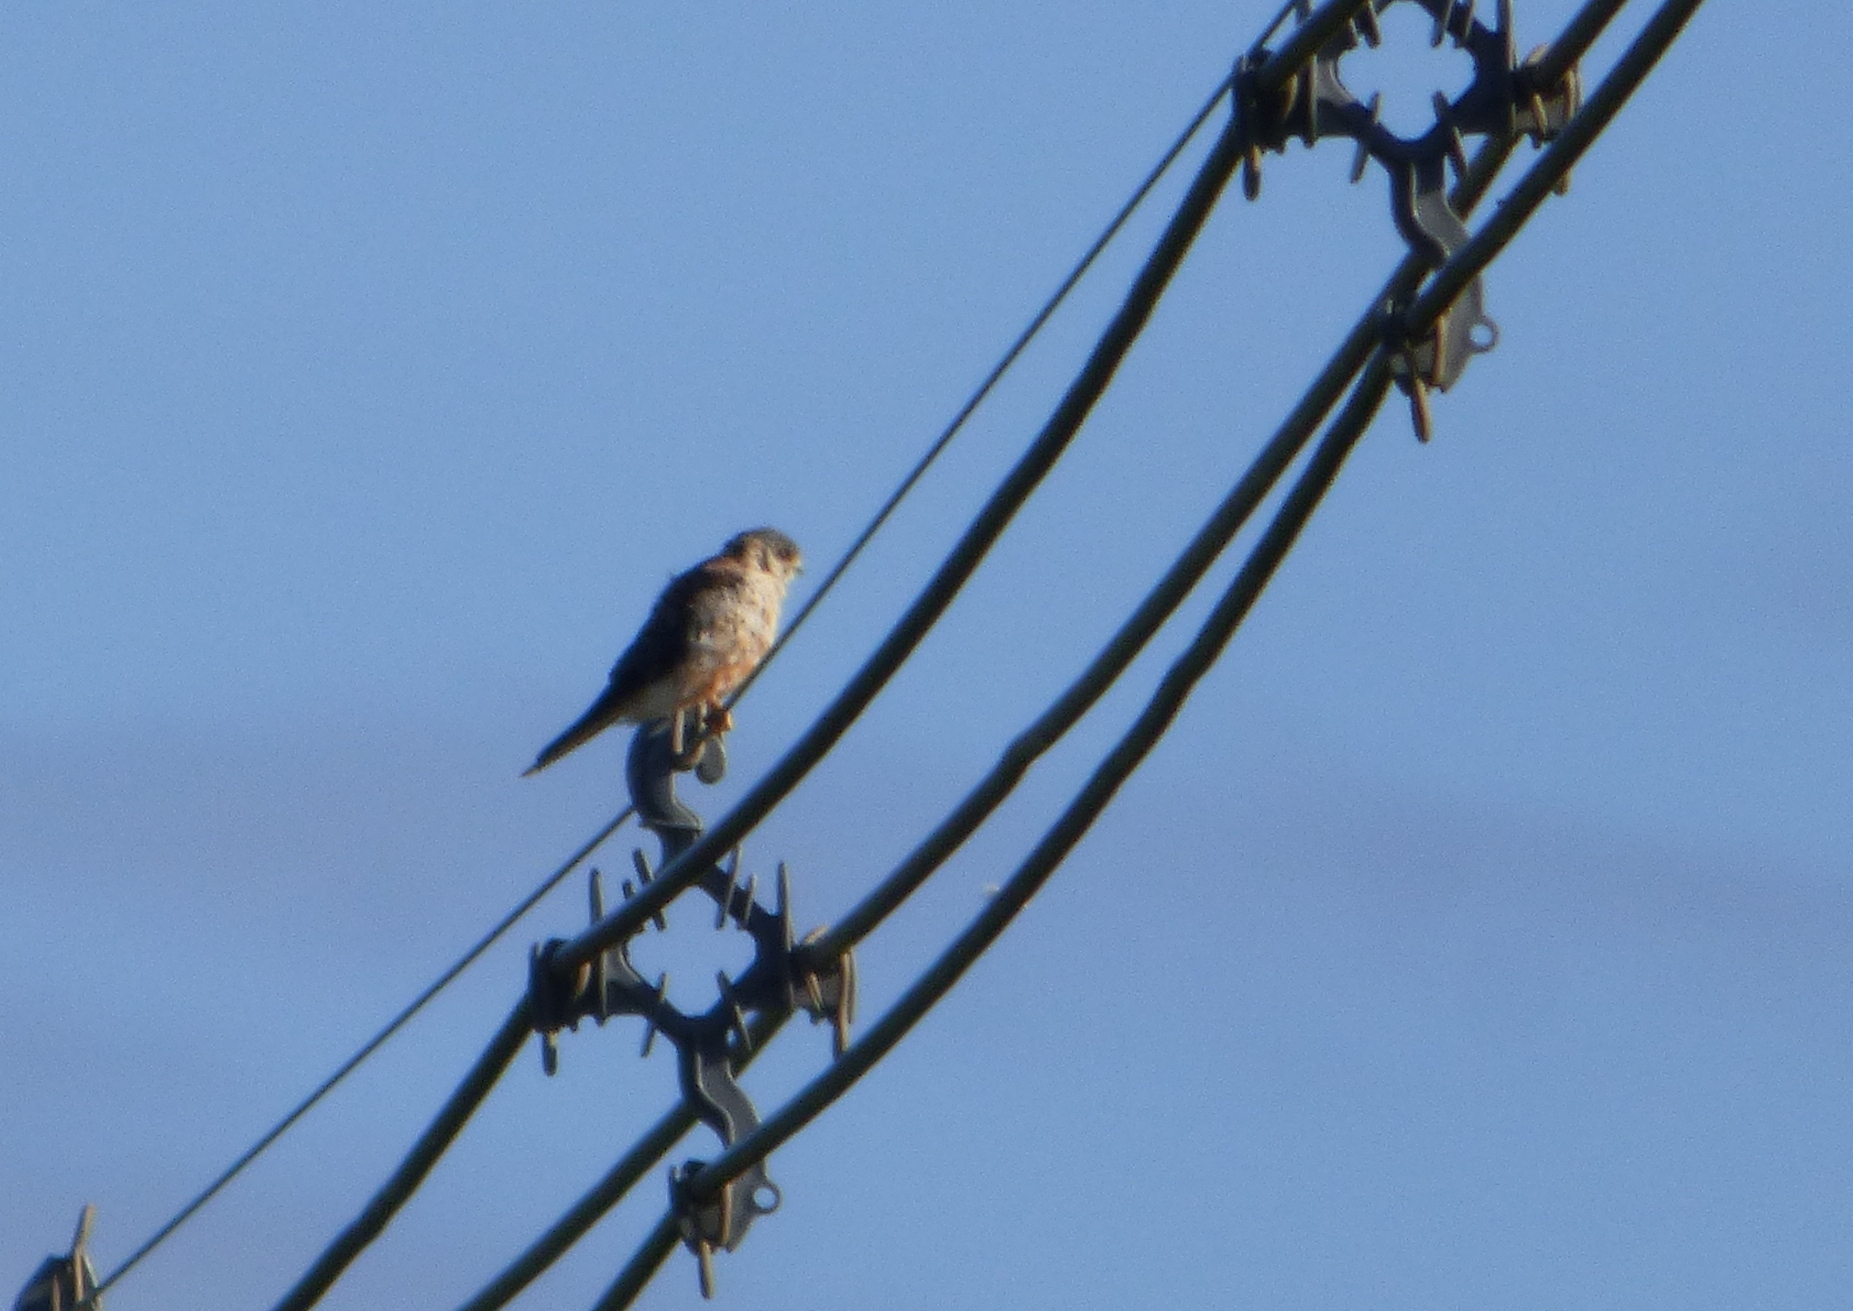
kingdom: Animalia
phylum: Chordata
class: Aves
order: Falconiformes
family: Falconidae
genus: Falco
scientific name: Falco sparverius
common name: American kestrel
